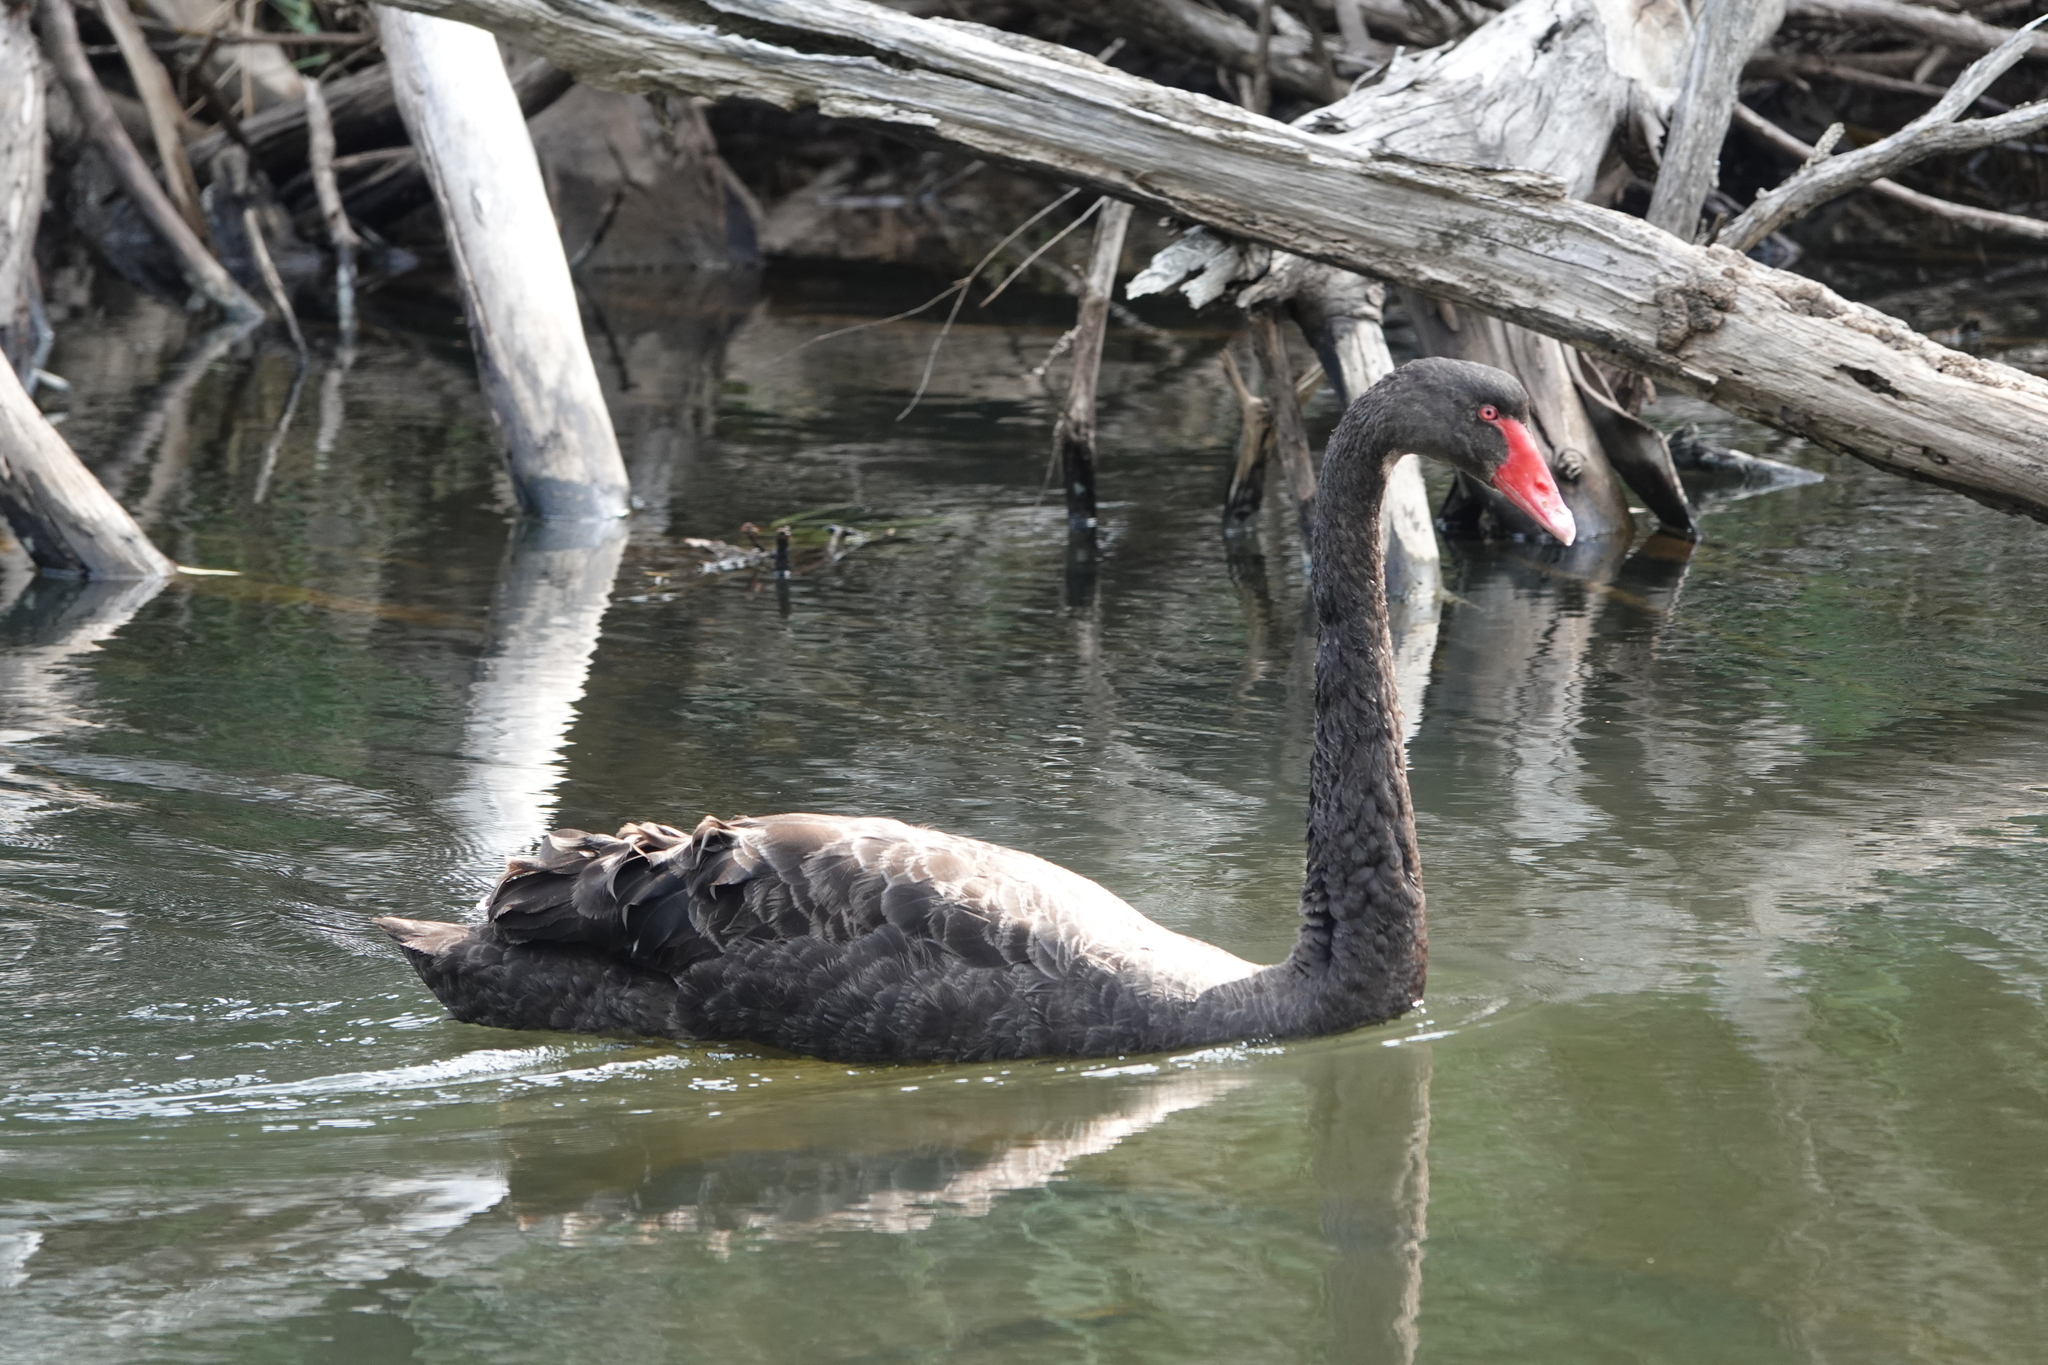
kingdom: Animalia
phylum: Chordata
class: Aves
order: Anseriformes
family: Anatidae
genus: Cygnus
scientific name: Cygnus atratus
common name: Black swan
